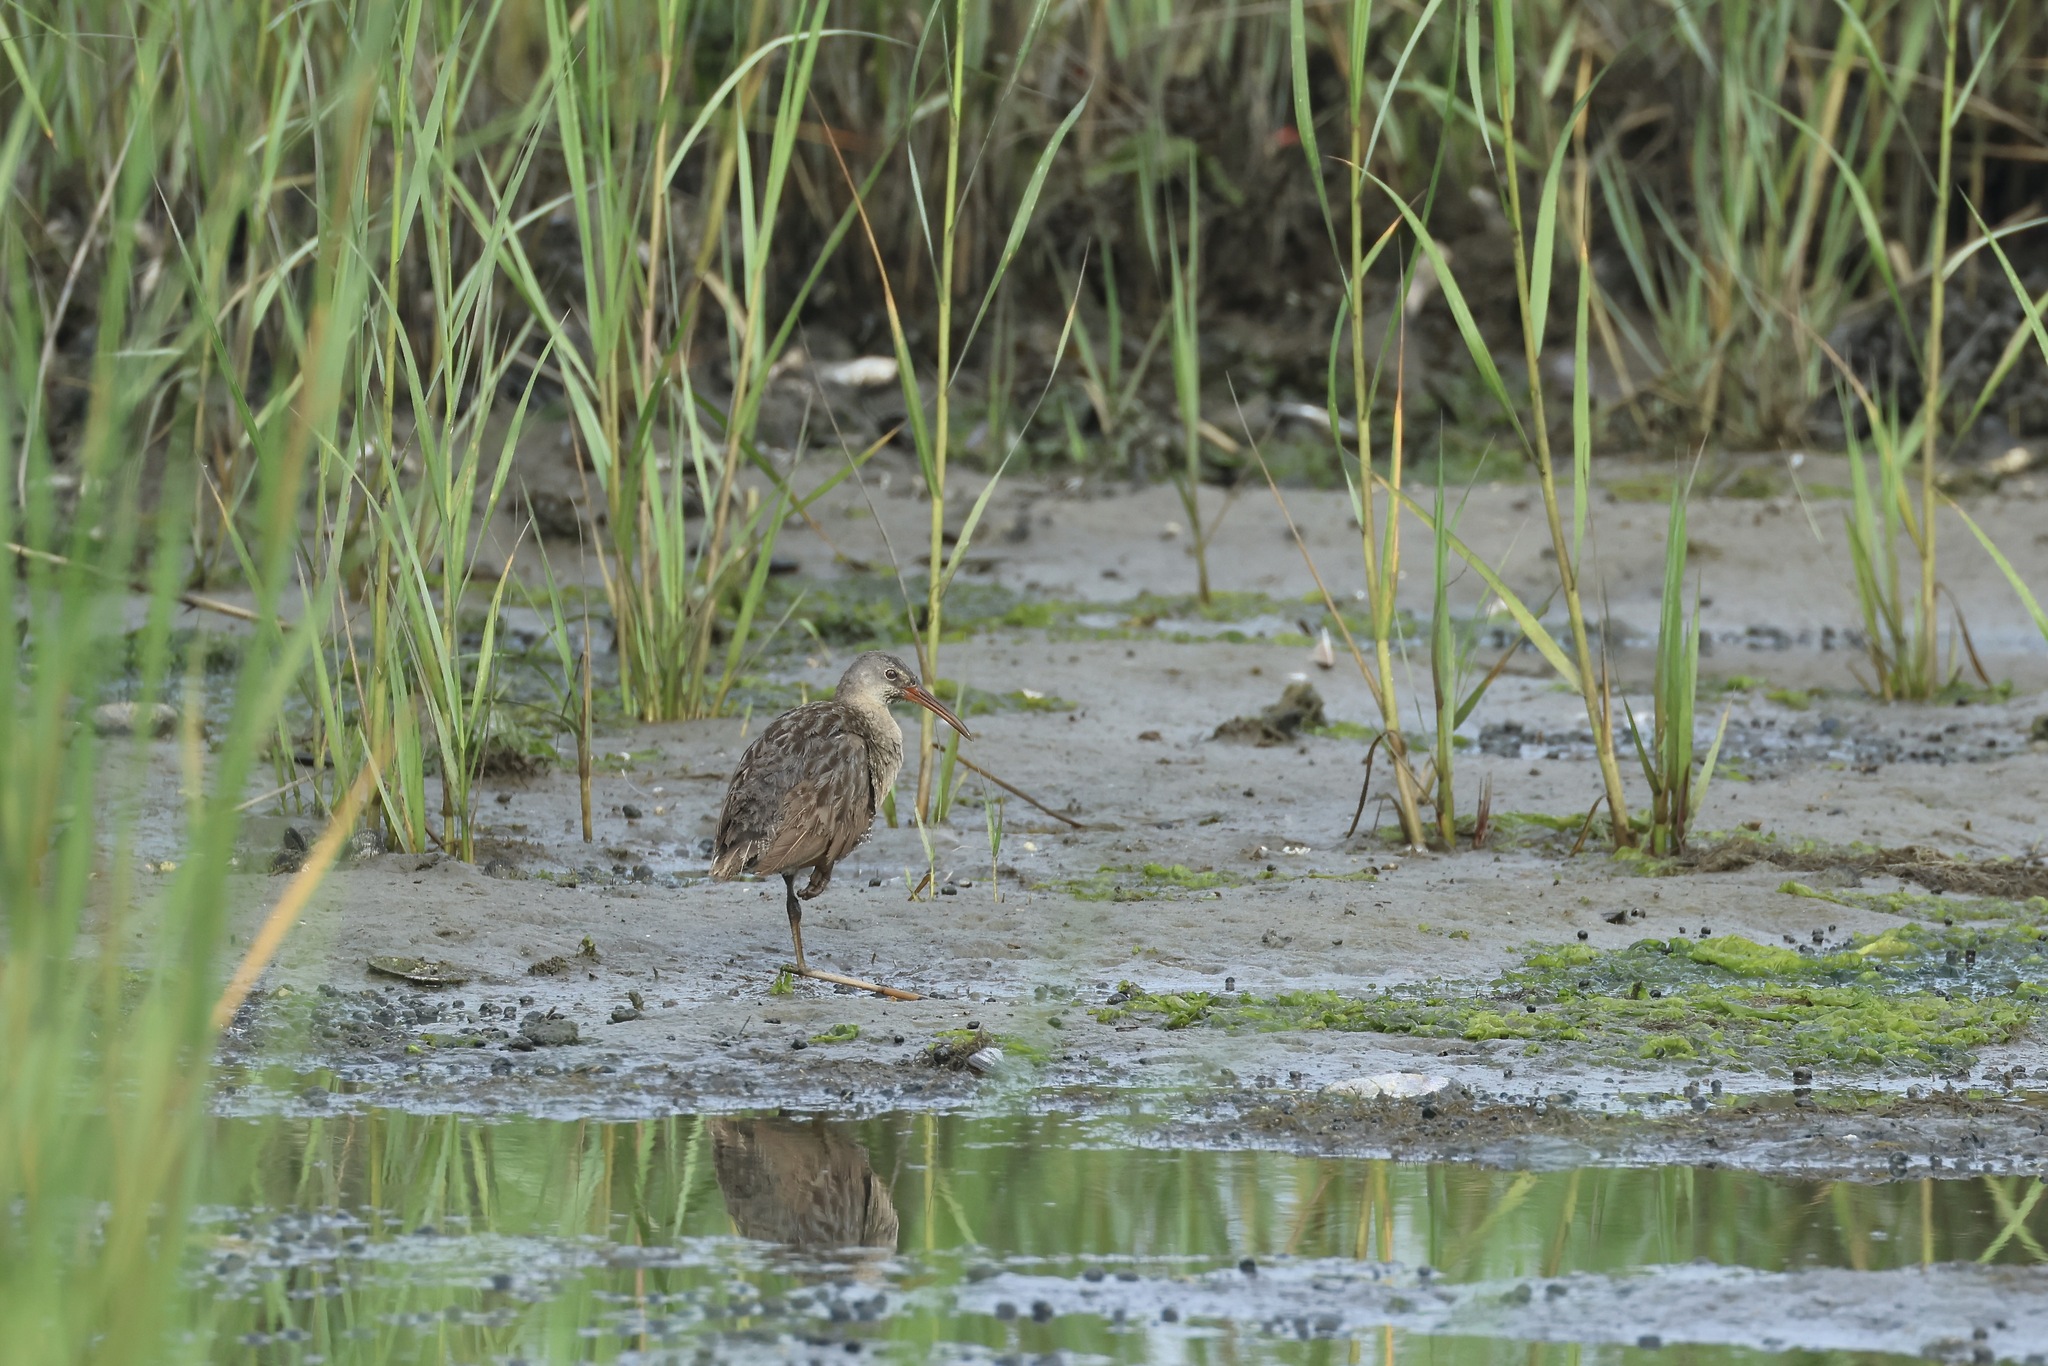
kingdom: Animalia
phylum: Chordata
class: Aves
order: Gruiformes
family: Rallidae
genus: Rallus
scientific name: Rallus crepitans
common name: Clapper rail
